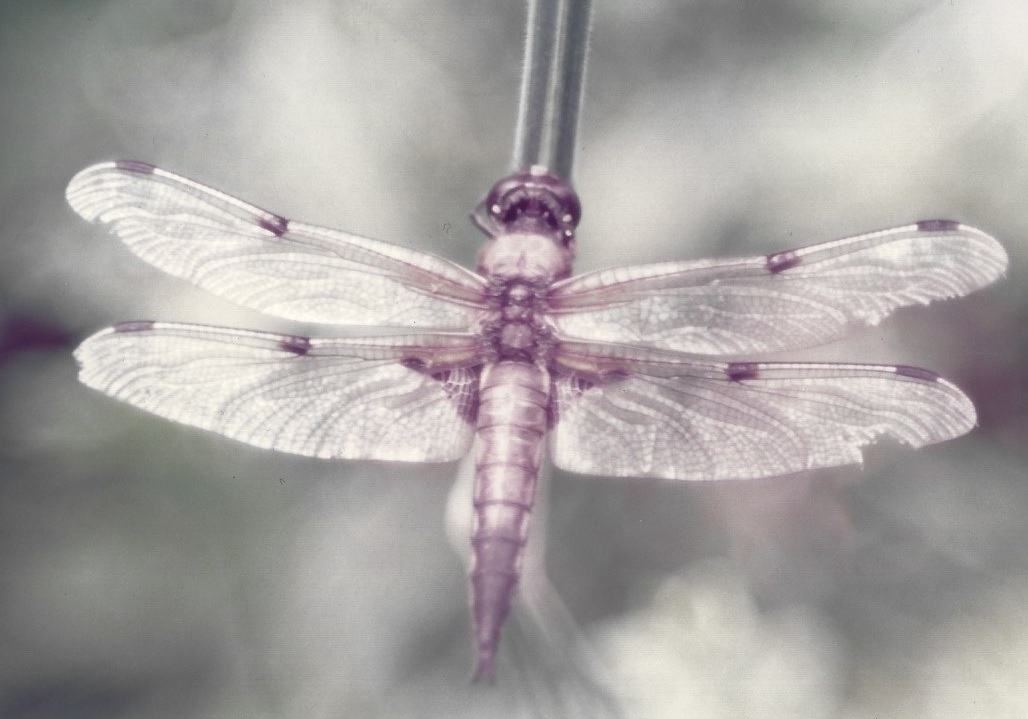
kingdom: Animalia
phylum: Arthropoda
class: Insecta
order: Odonata
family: Libellulidae
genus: Libellula
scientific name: Libellula quadrimaculata
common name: Four-spotted chaser
